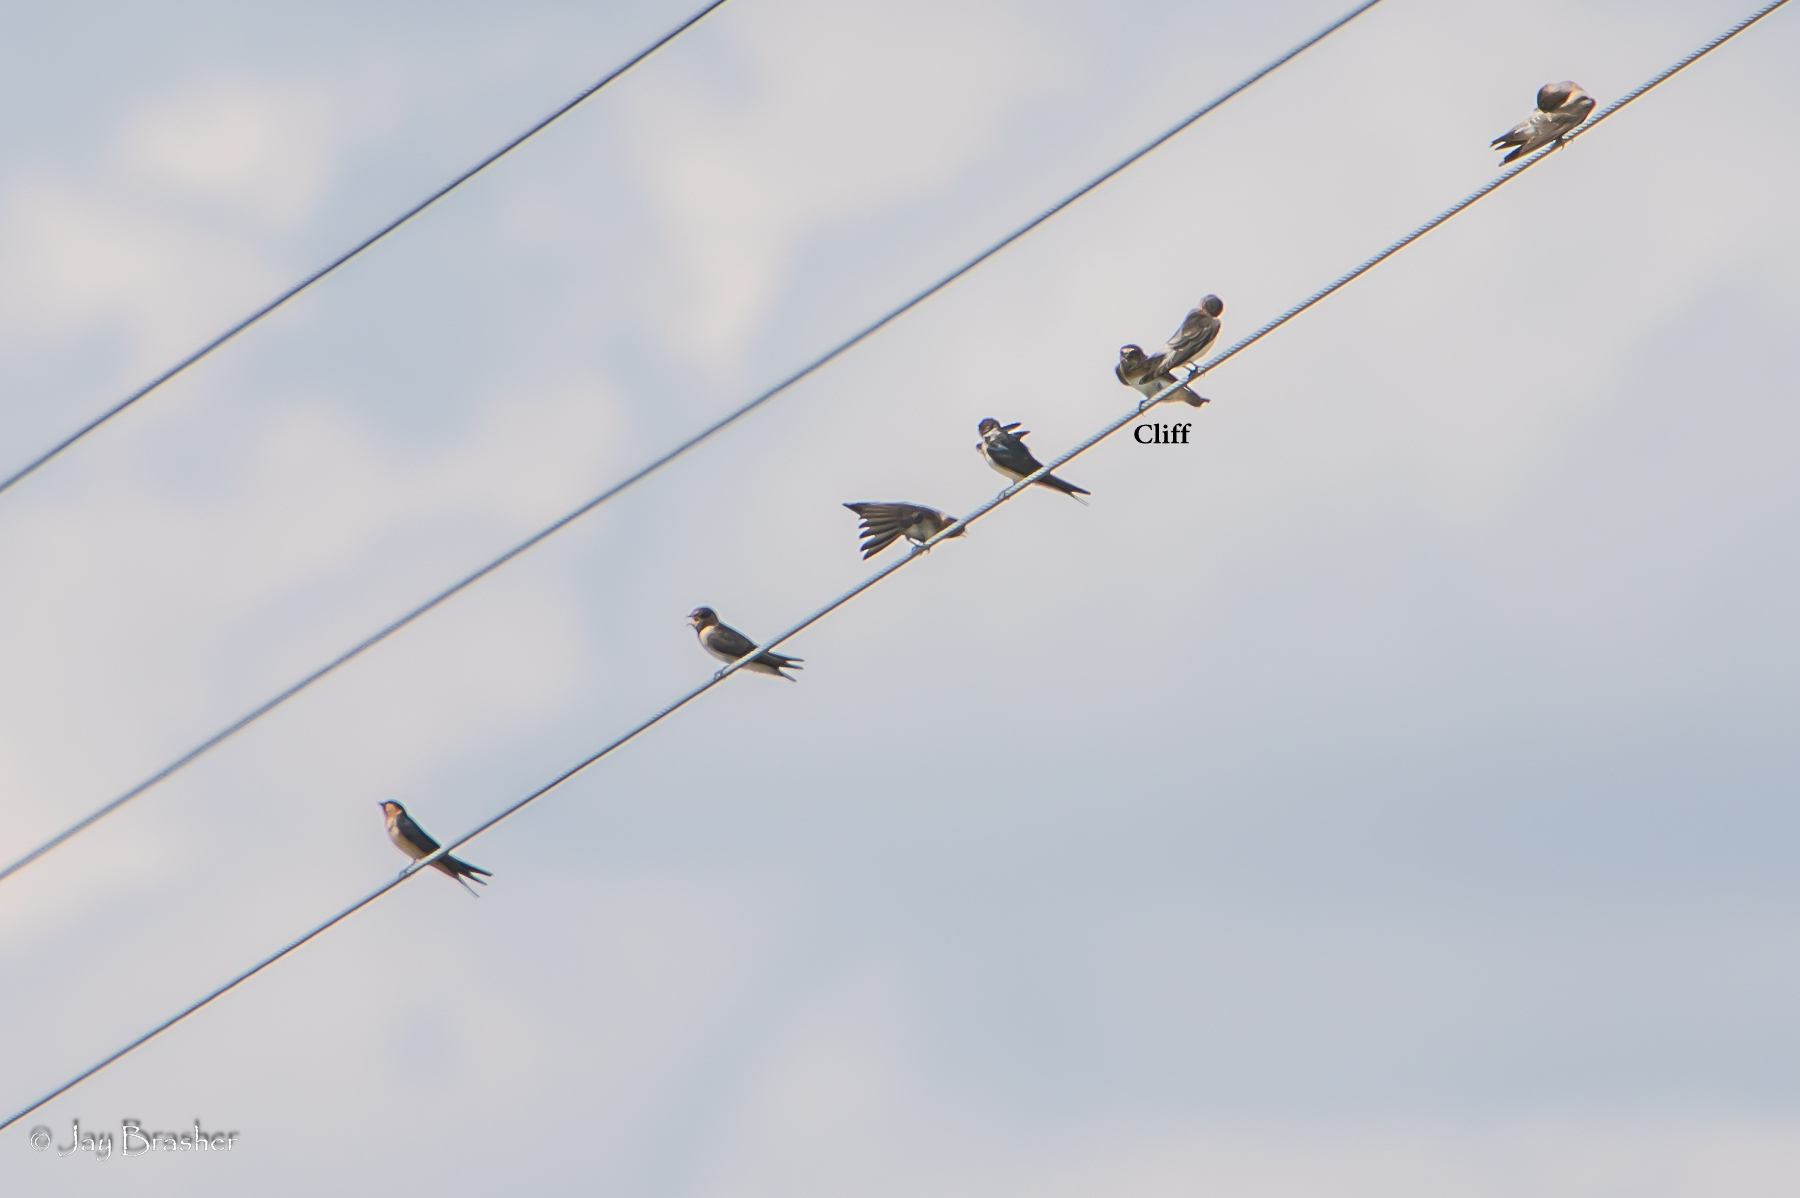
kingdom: Animalia
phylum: Chordata
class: Aves
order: Passeriformes
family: Hirundinidae
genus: Petrochelidon
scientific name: Petrochelidon pyrrhonota
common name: American cliff swallow
